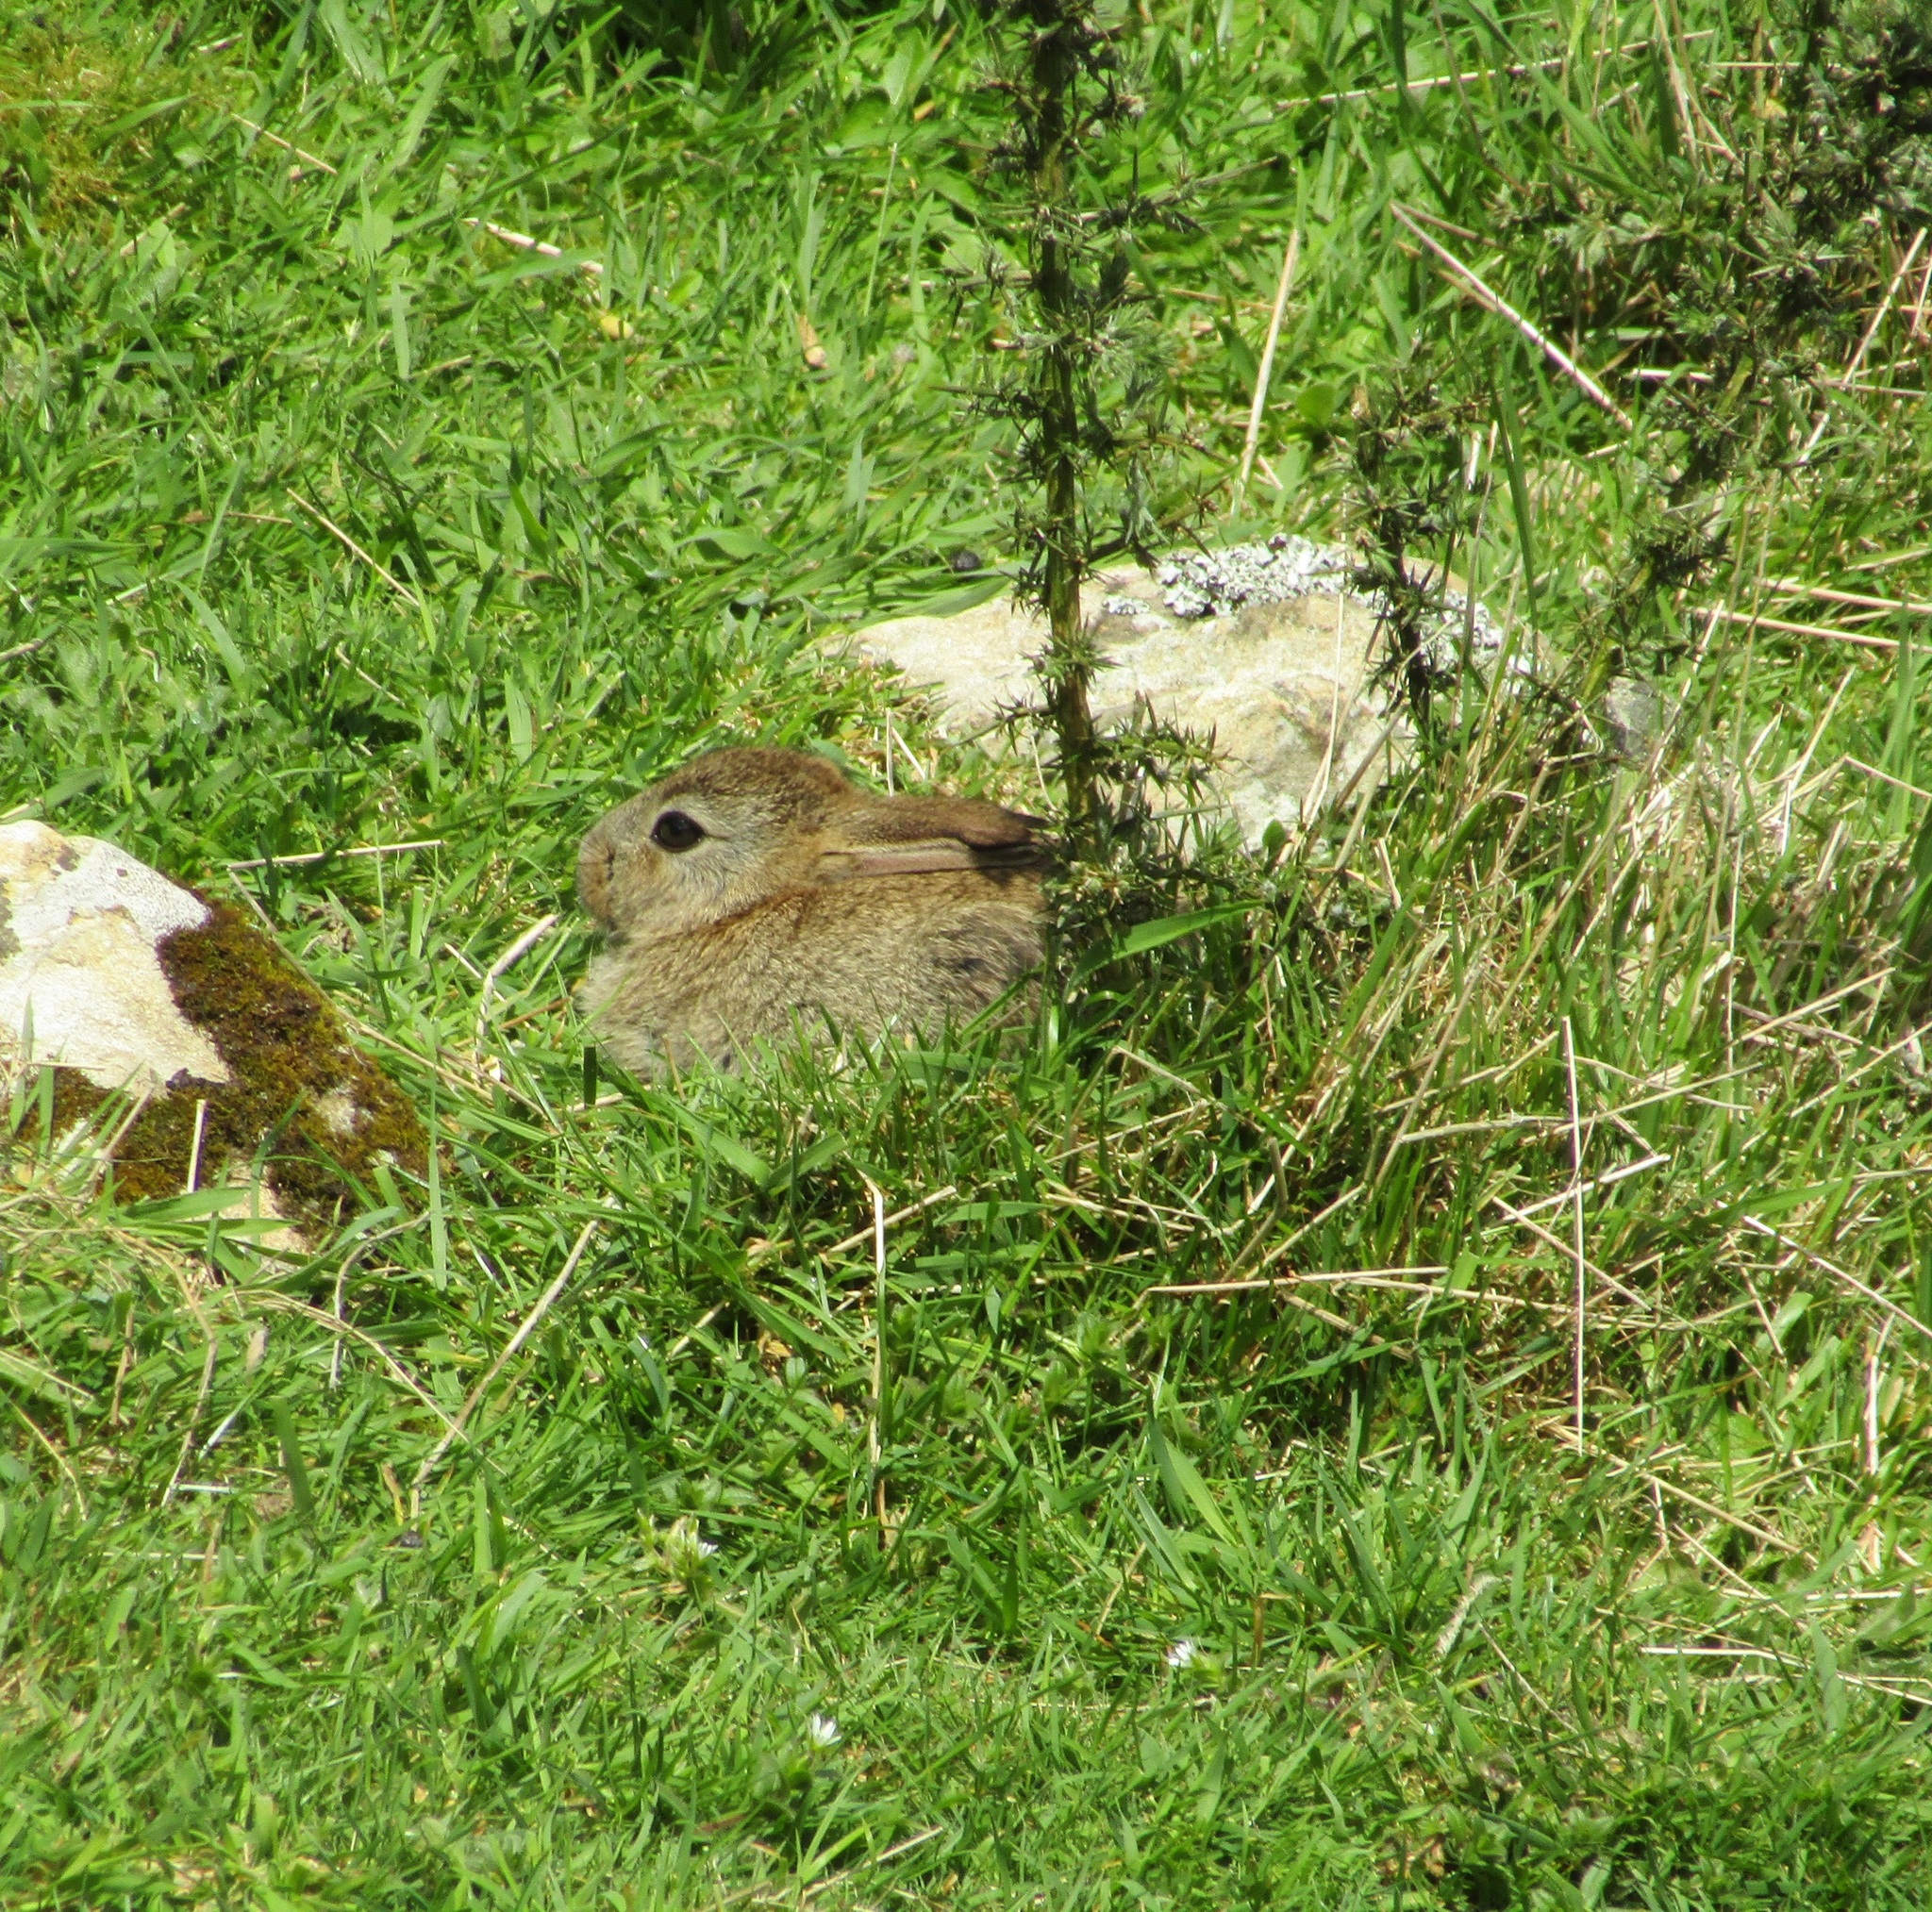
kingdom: Animalia
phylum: Chordata
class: Mammalia
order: Lagomorpha
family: Leporidae
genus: Oryctolagus
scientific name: Oryctolagus cuniculus
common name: European rabbit
